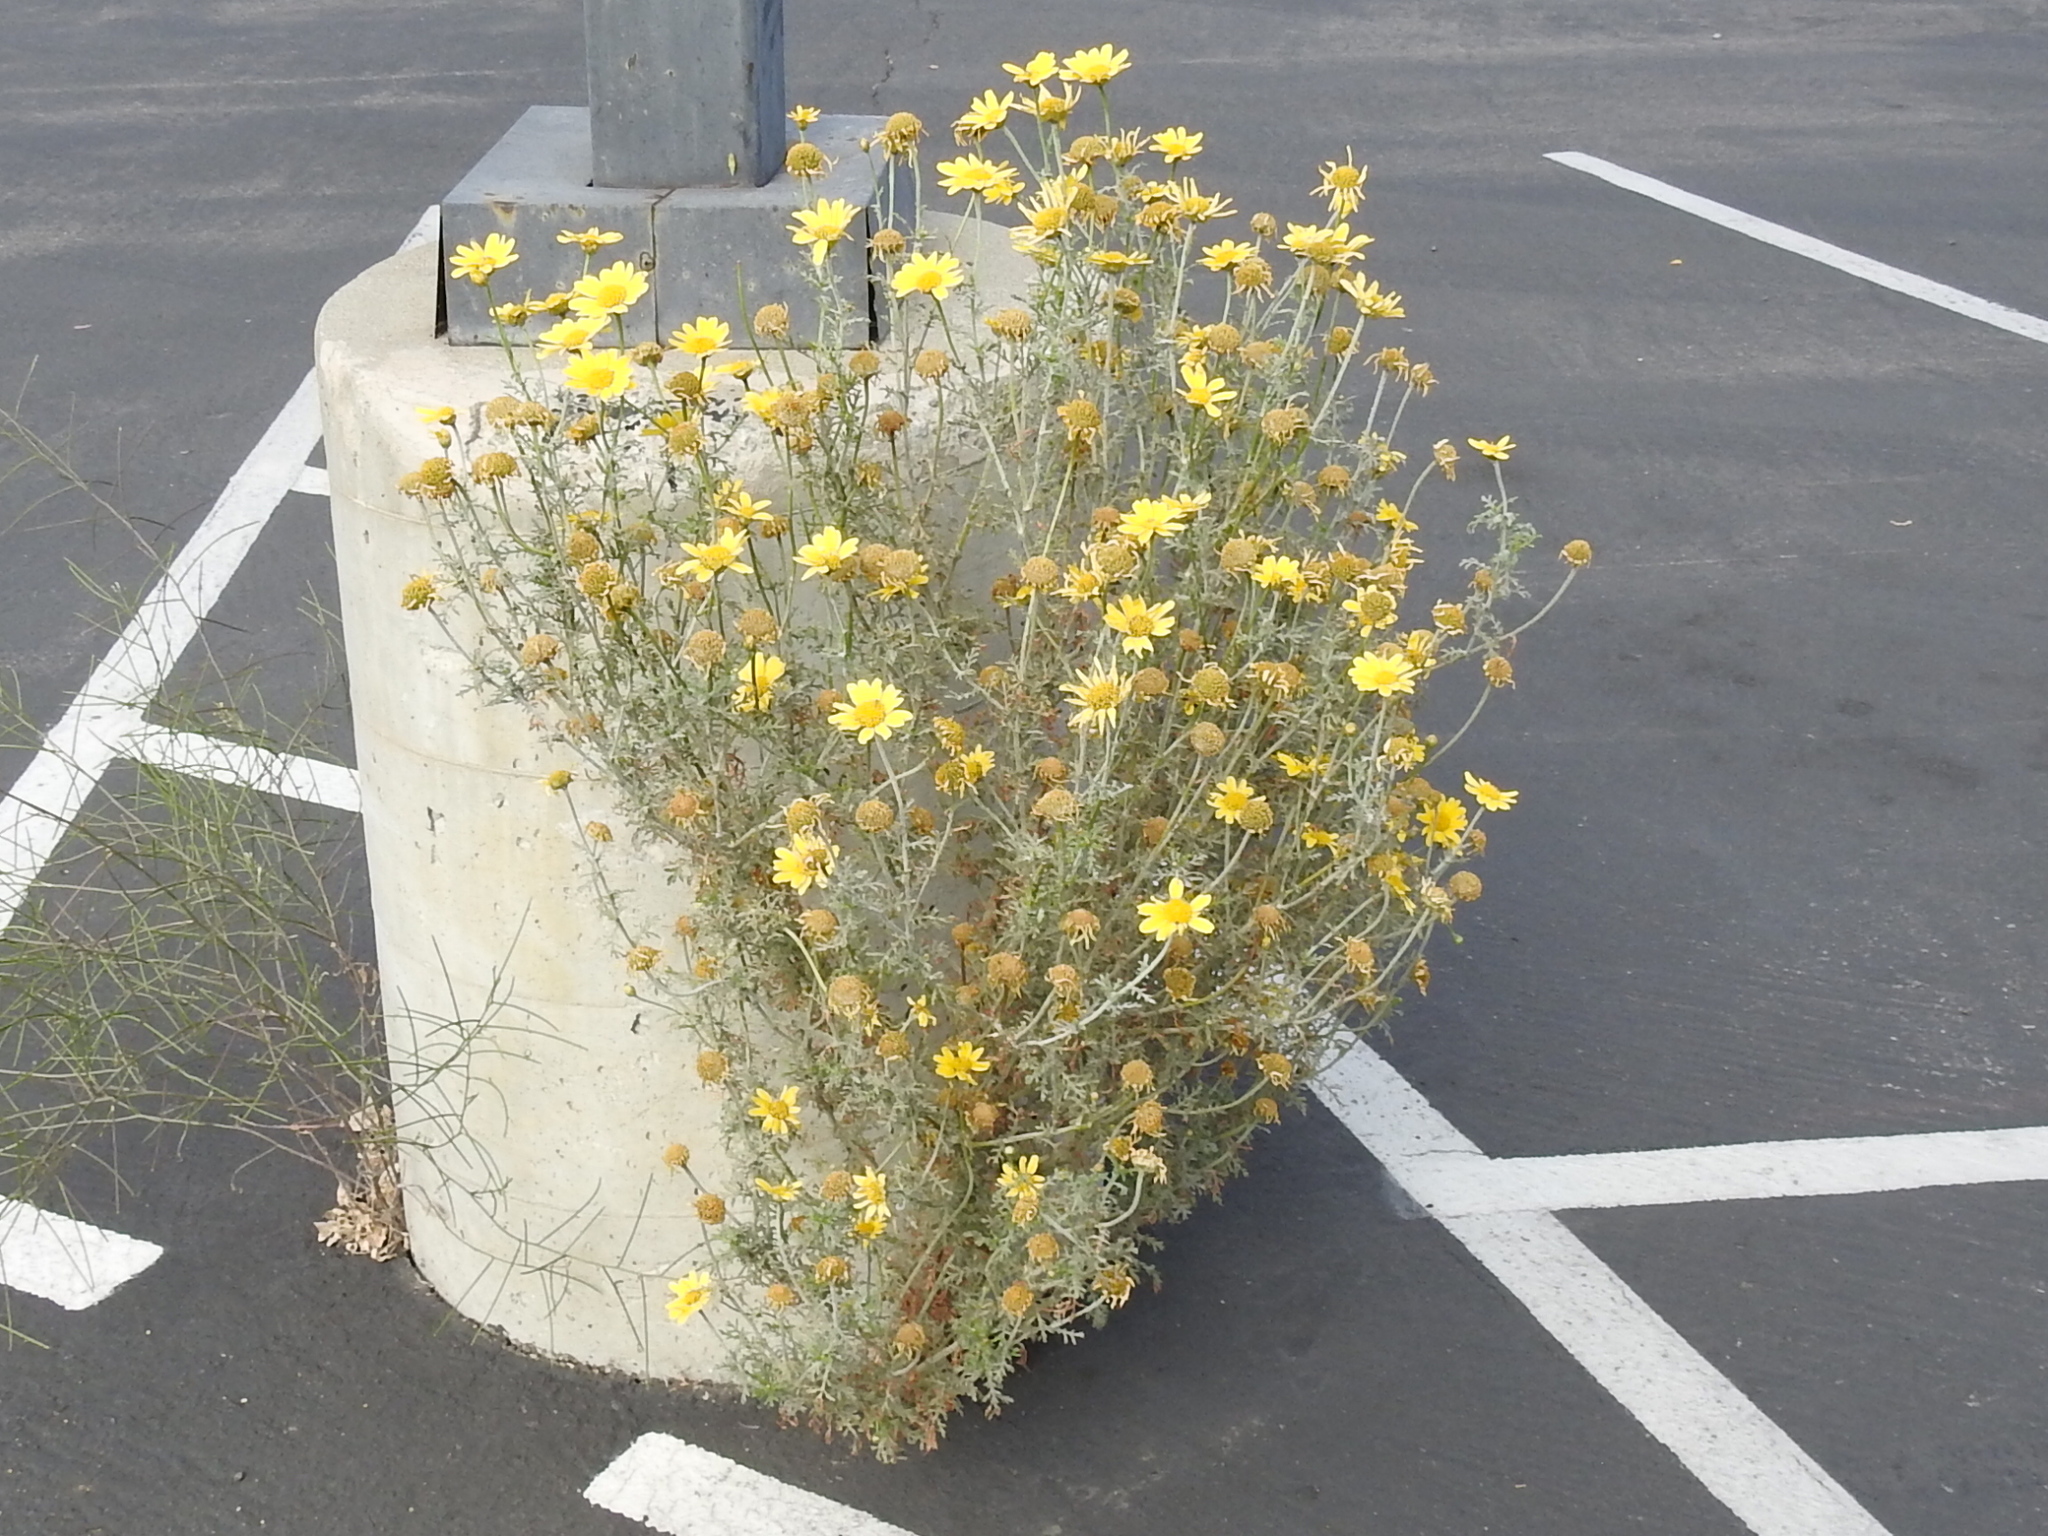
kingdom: Plantae
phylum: Tracheophyta
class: Magnoliopsida
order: Asterales
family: Asteraceae
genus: Glebionis
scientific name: Glebionis coronaria
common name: Crowndaisy
